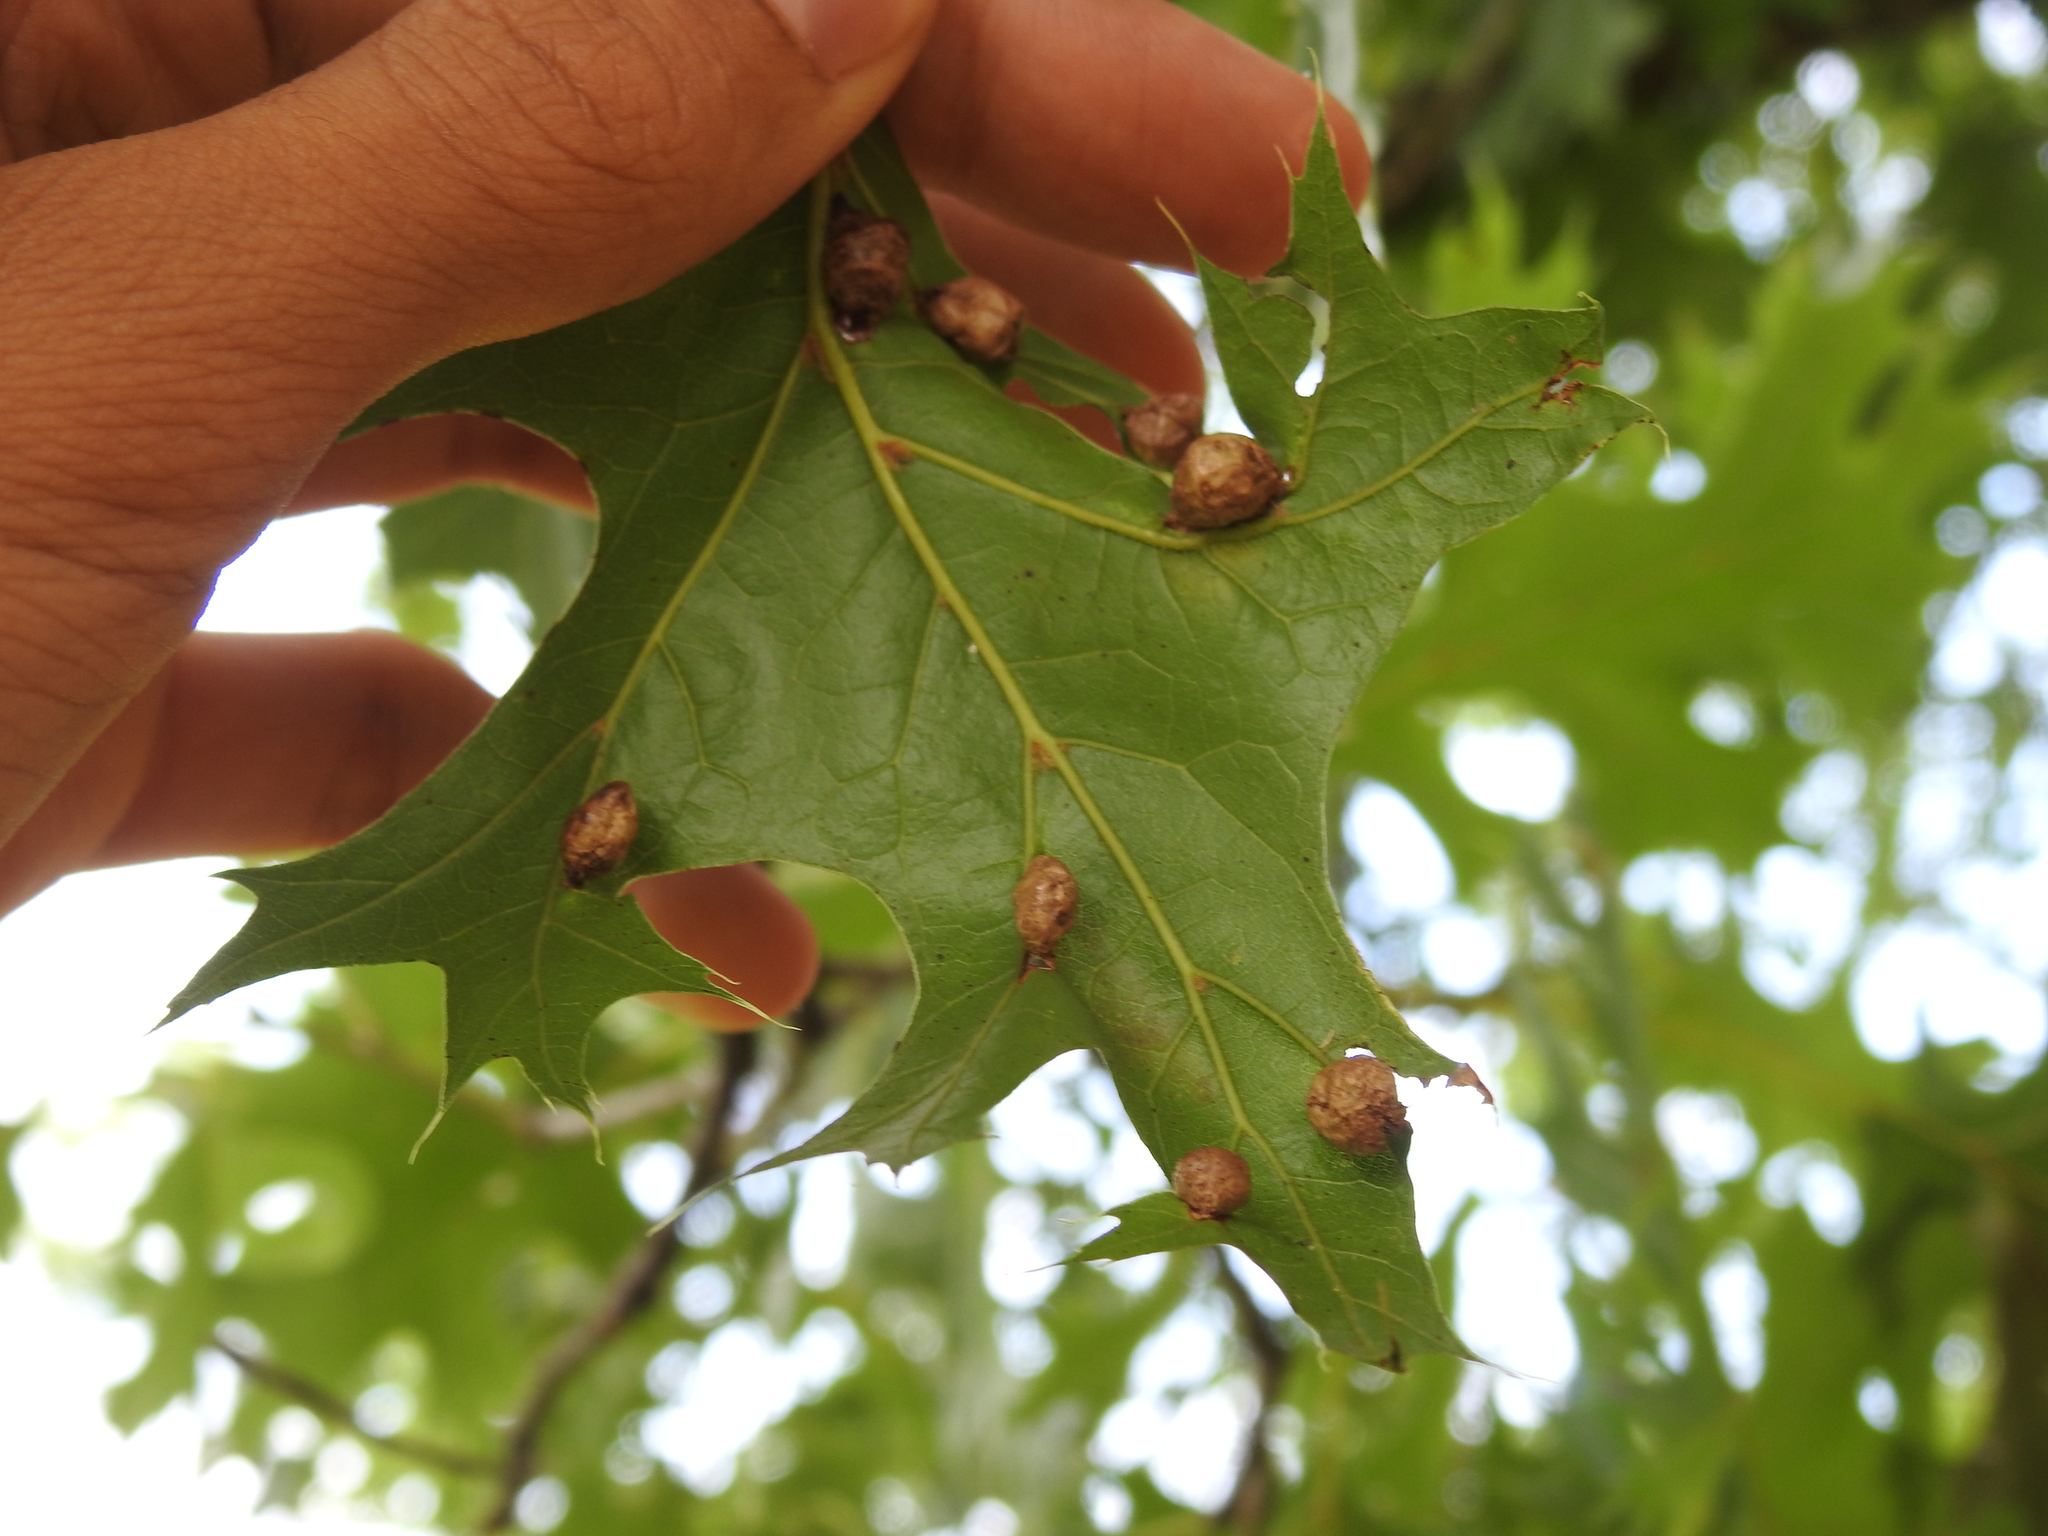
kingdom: Animalia
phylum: Arthropoda
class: Insecta
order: Diptera
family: Cecidomyiidae
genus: Macrodiplosis
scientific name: Macrodiplosis majalis
